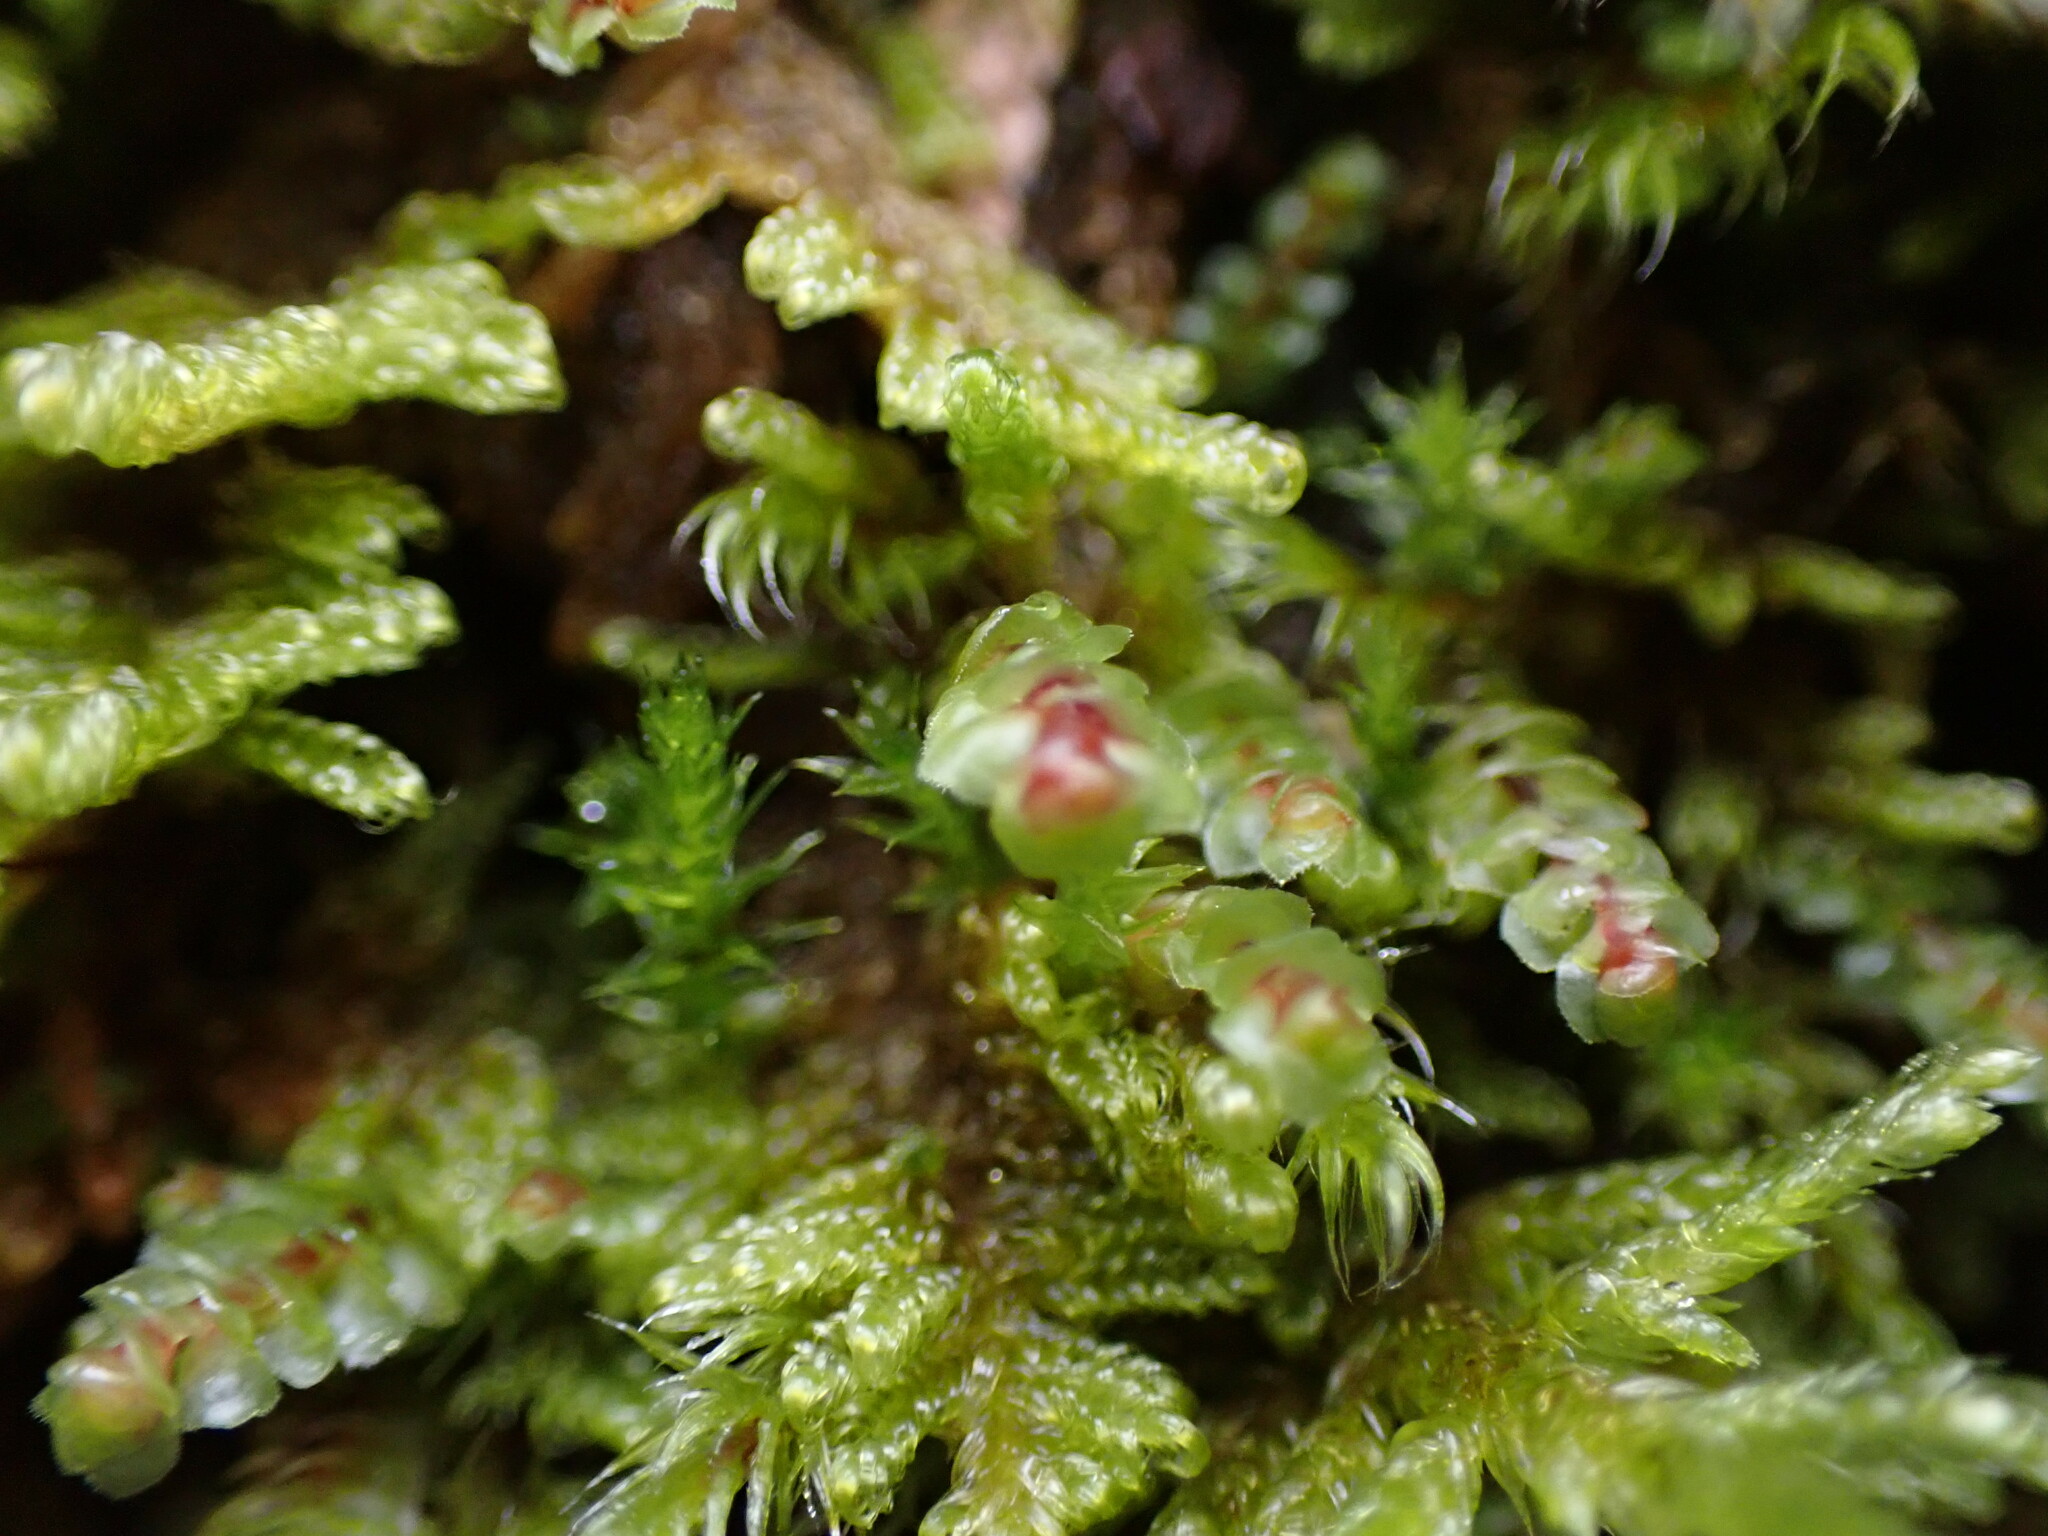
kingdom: Plantae
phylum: Marchantiophyta
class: Jungermanniopsida
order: Jungermanniales
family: Scapaniaceae
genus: Scapania
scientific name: Scapania americana
